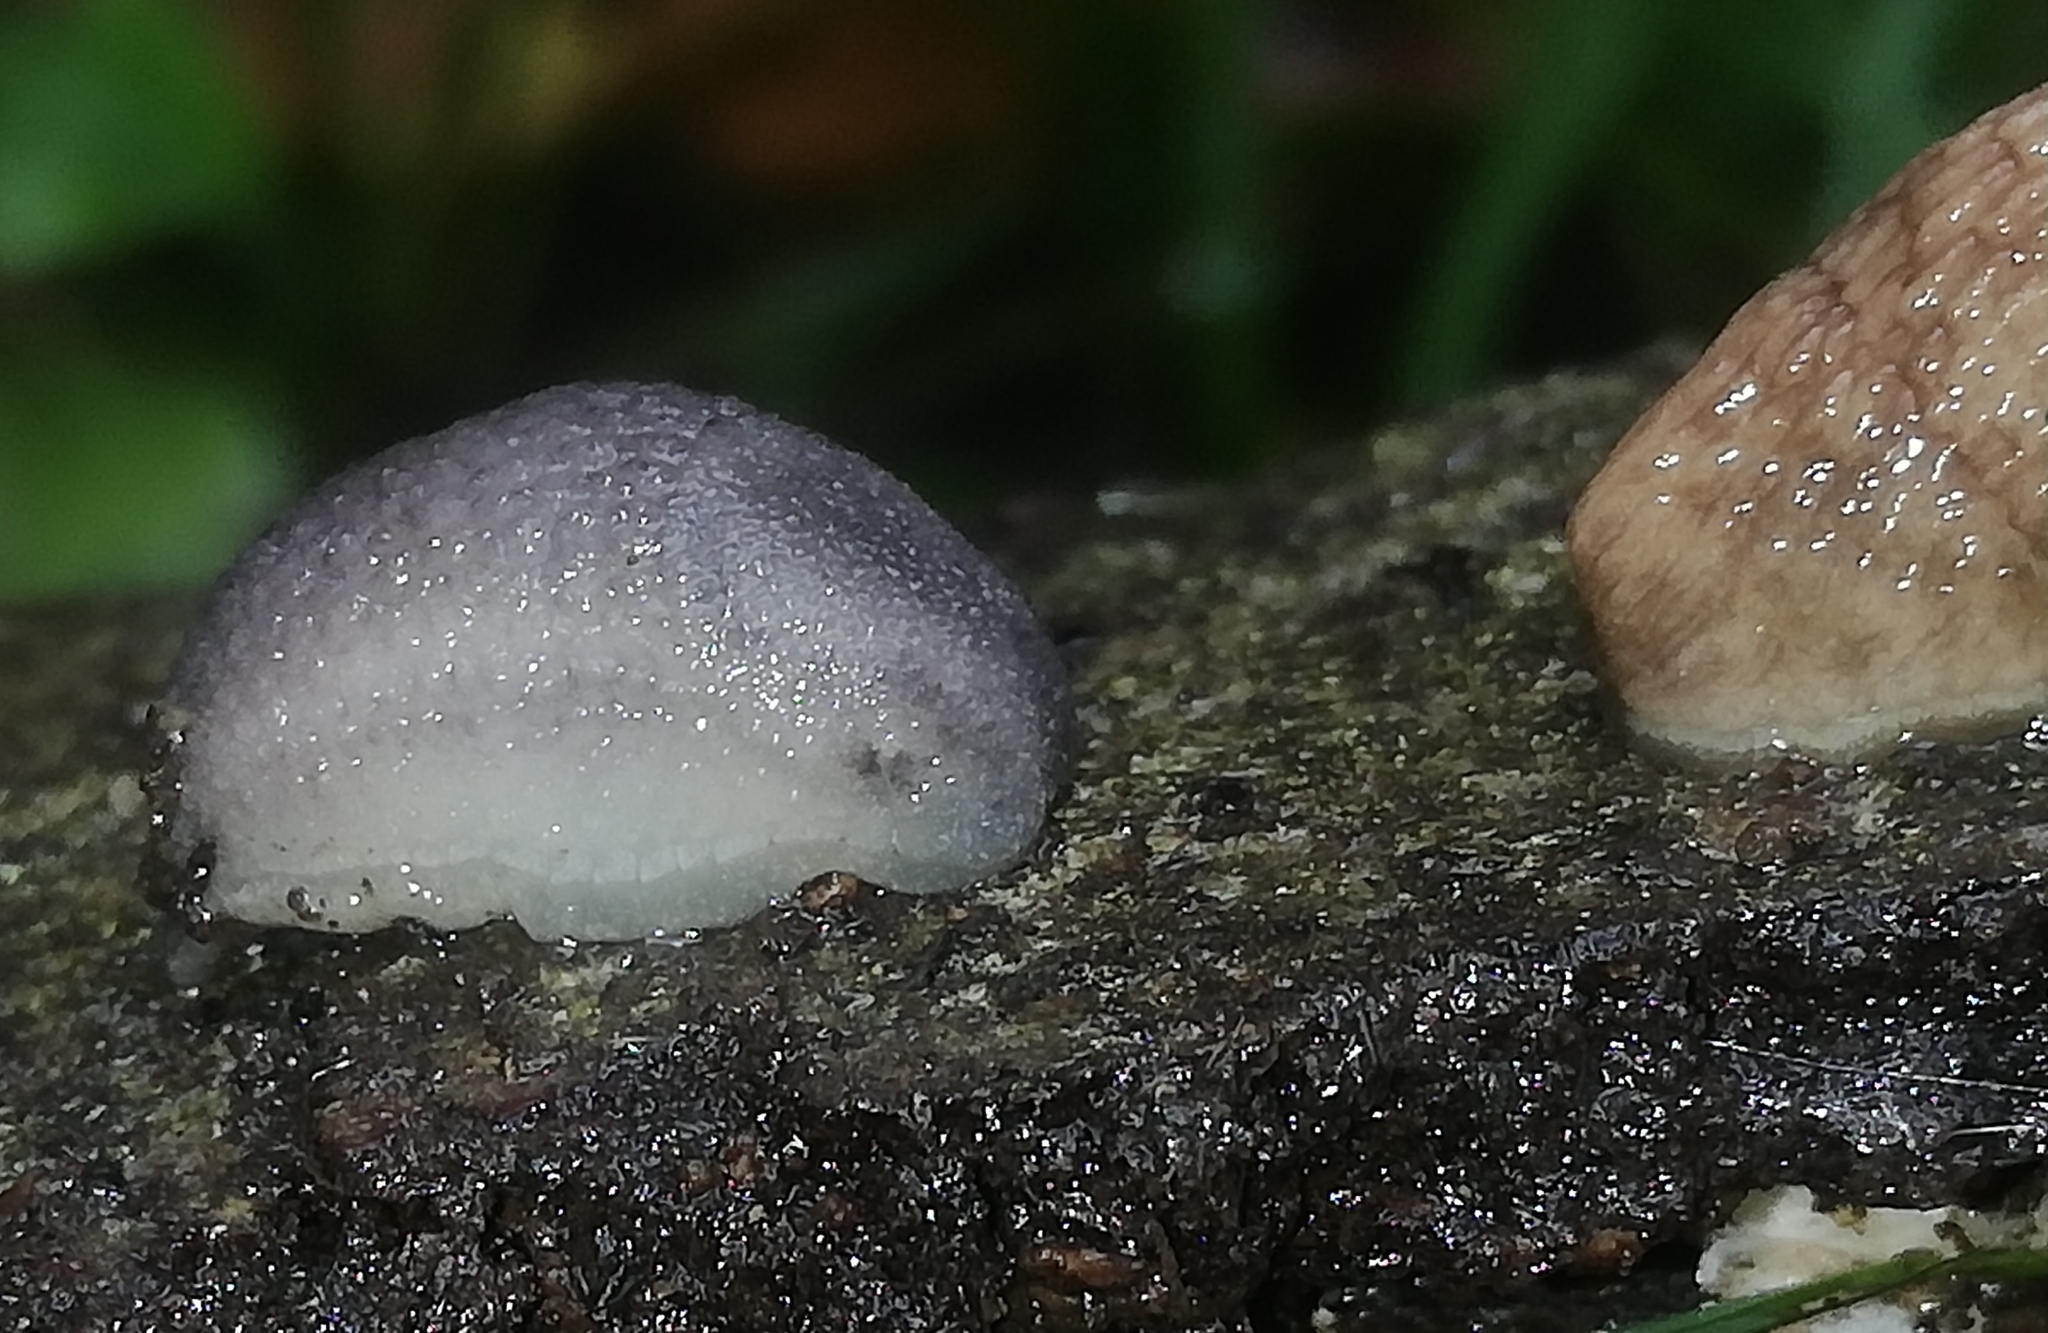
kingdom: Animalia
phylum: Mollusca
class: Gastropoda
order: Stylommatophora
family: Arionidae
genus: Arion
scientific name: Arion intermedius
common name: Hedgehog slug
